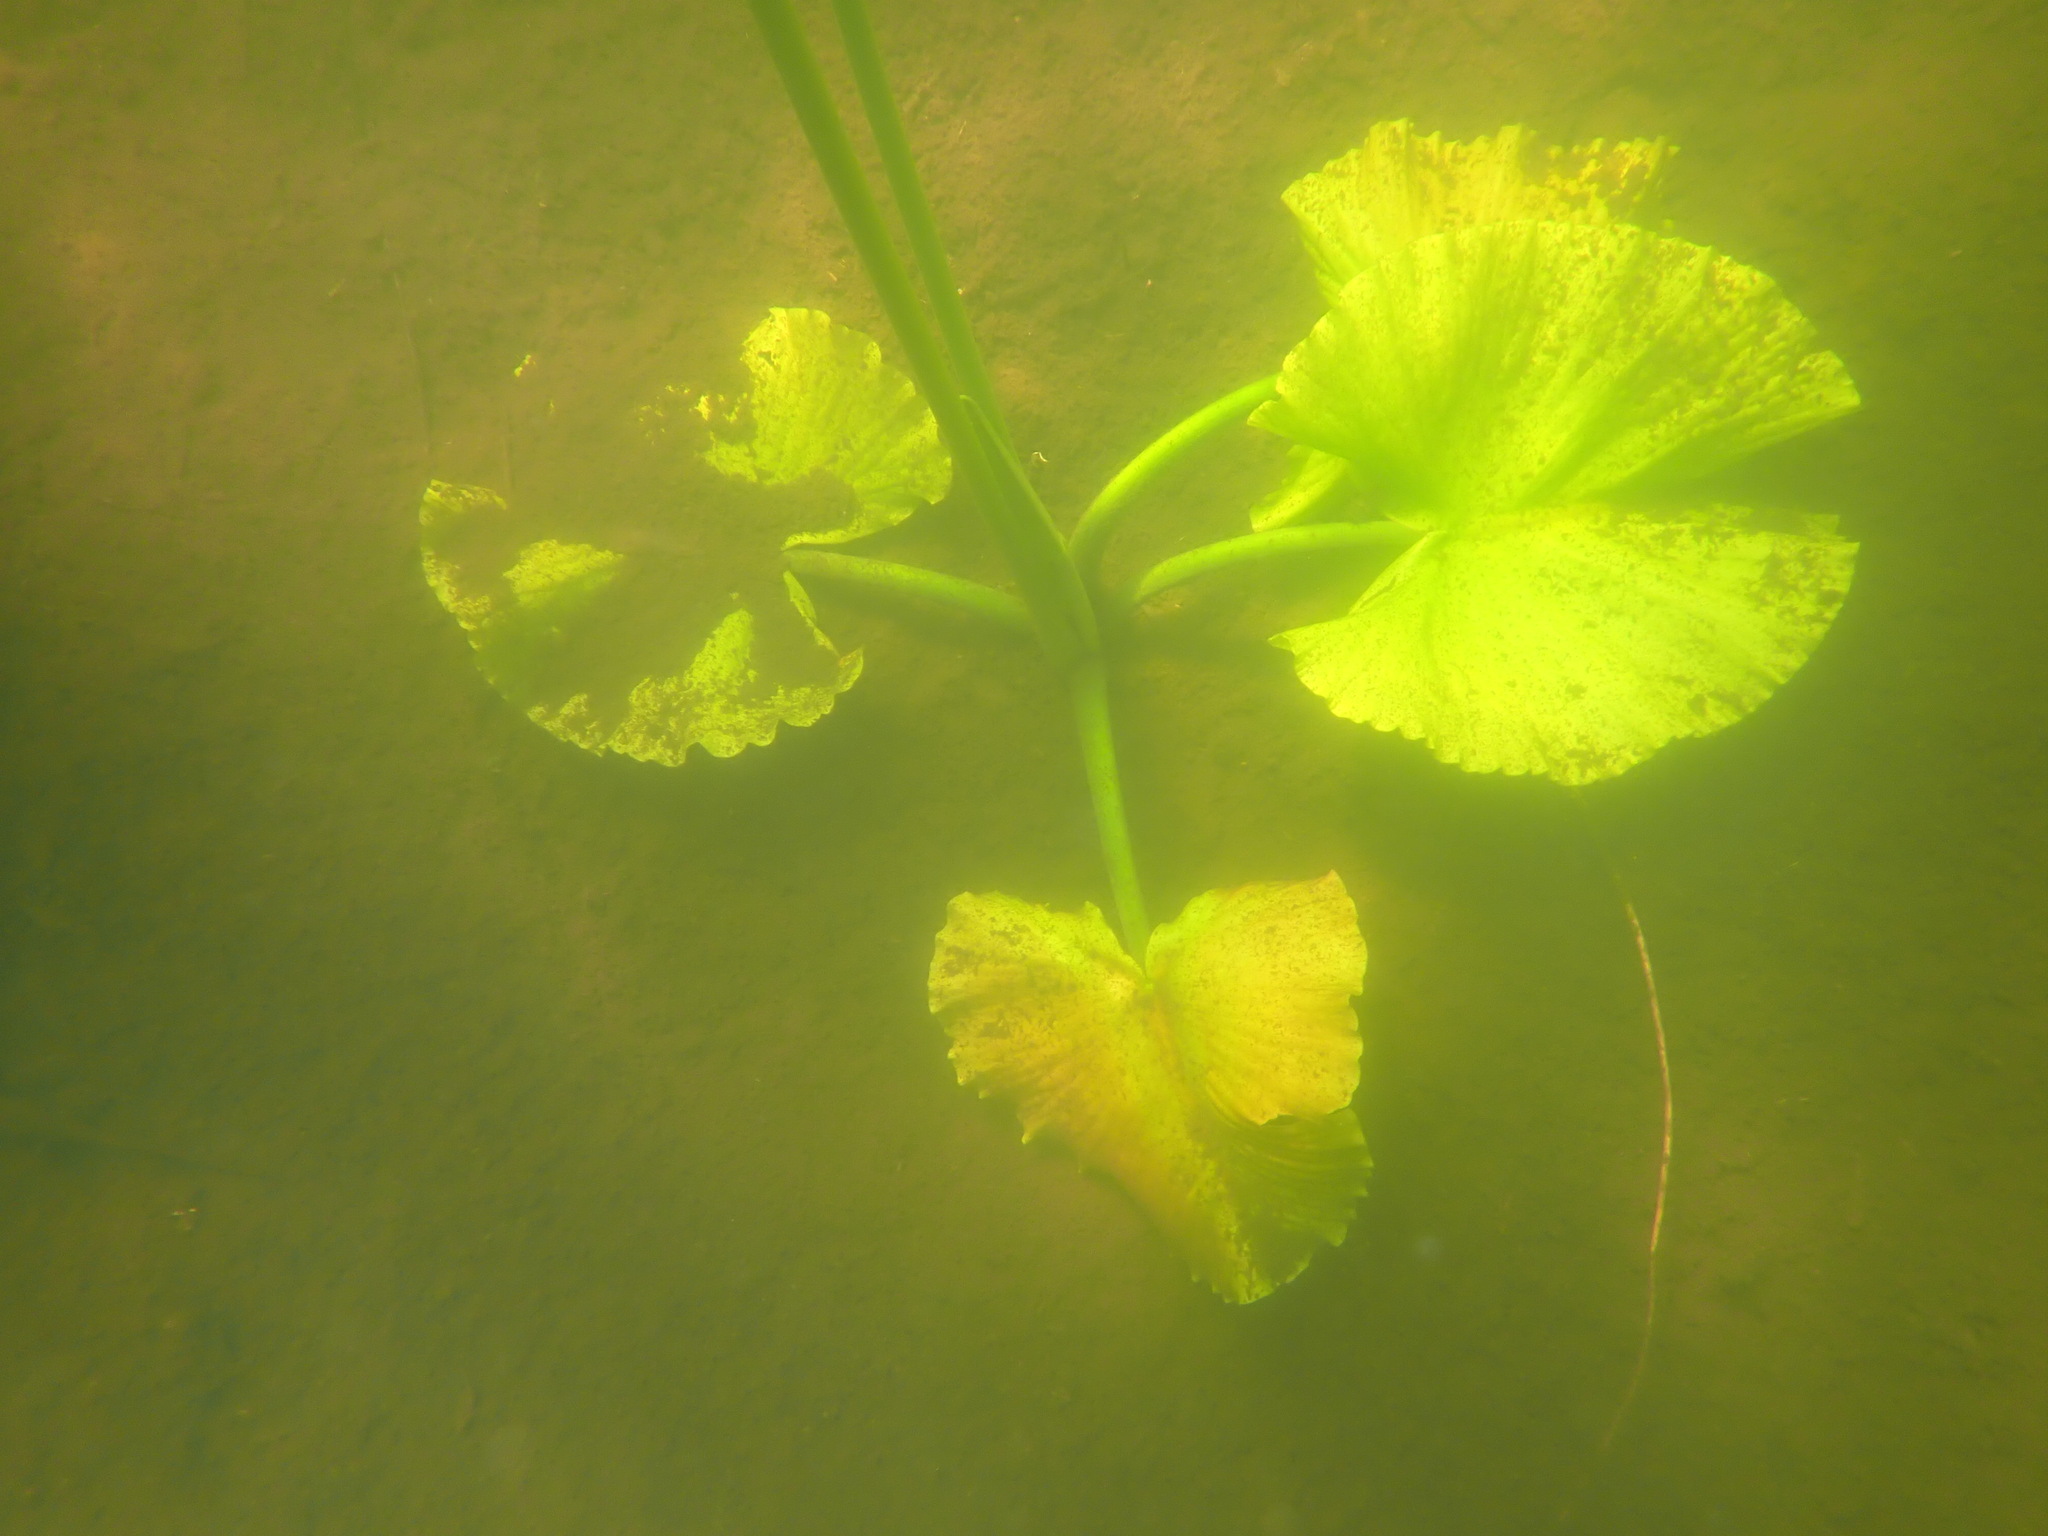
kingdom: Plantae
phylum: Tracheophyta
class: Magnoliopsida
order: Nymphaeales
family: Nymphaeaceae
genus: Nuphar
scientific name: Nuphar polysepala
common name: Rocky mountain cow-lily
